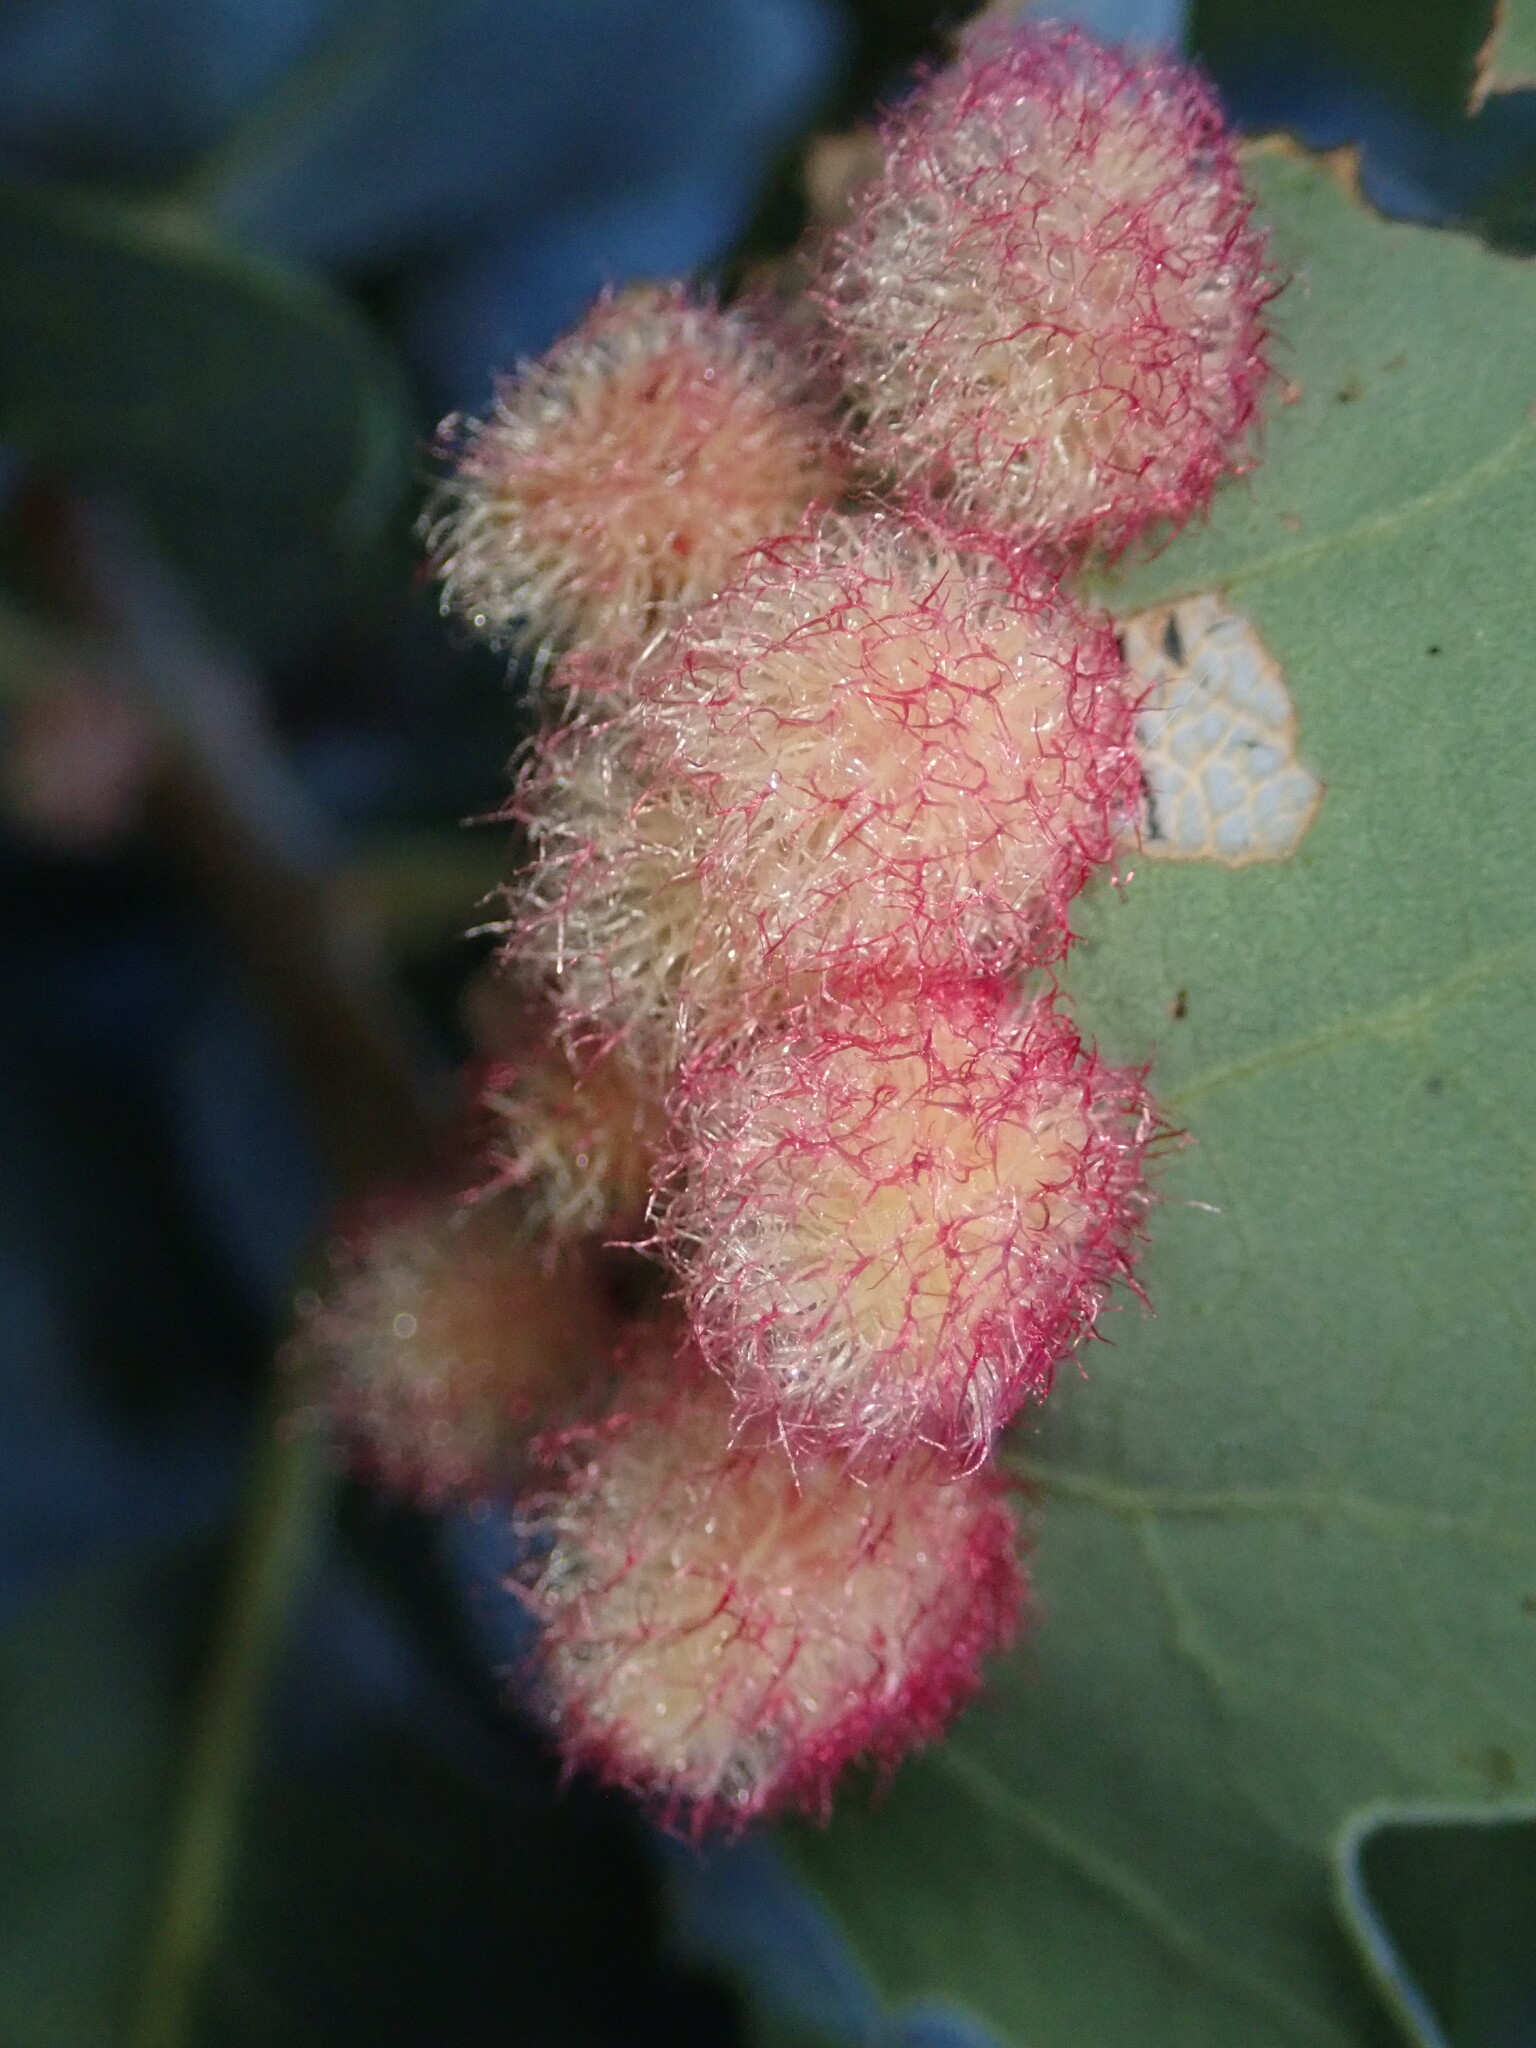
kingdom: Animalia
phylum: Arthropoda
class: Insecta
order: Hymenoptera
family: Cynipidae
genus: Andricus
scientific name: Andricus
